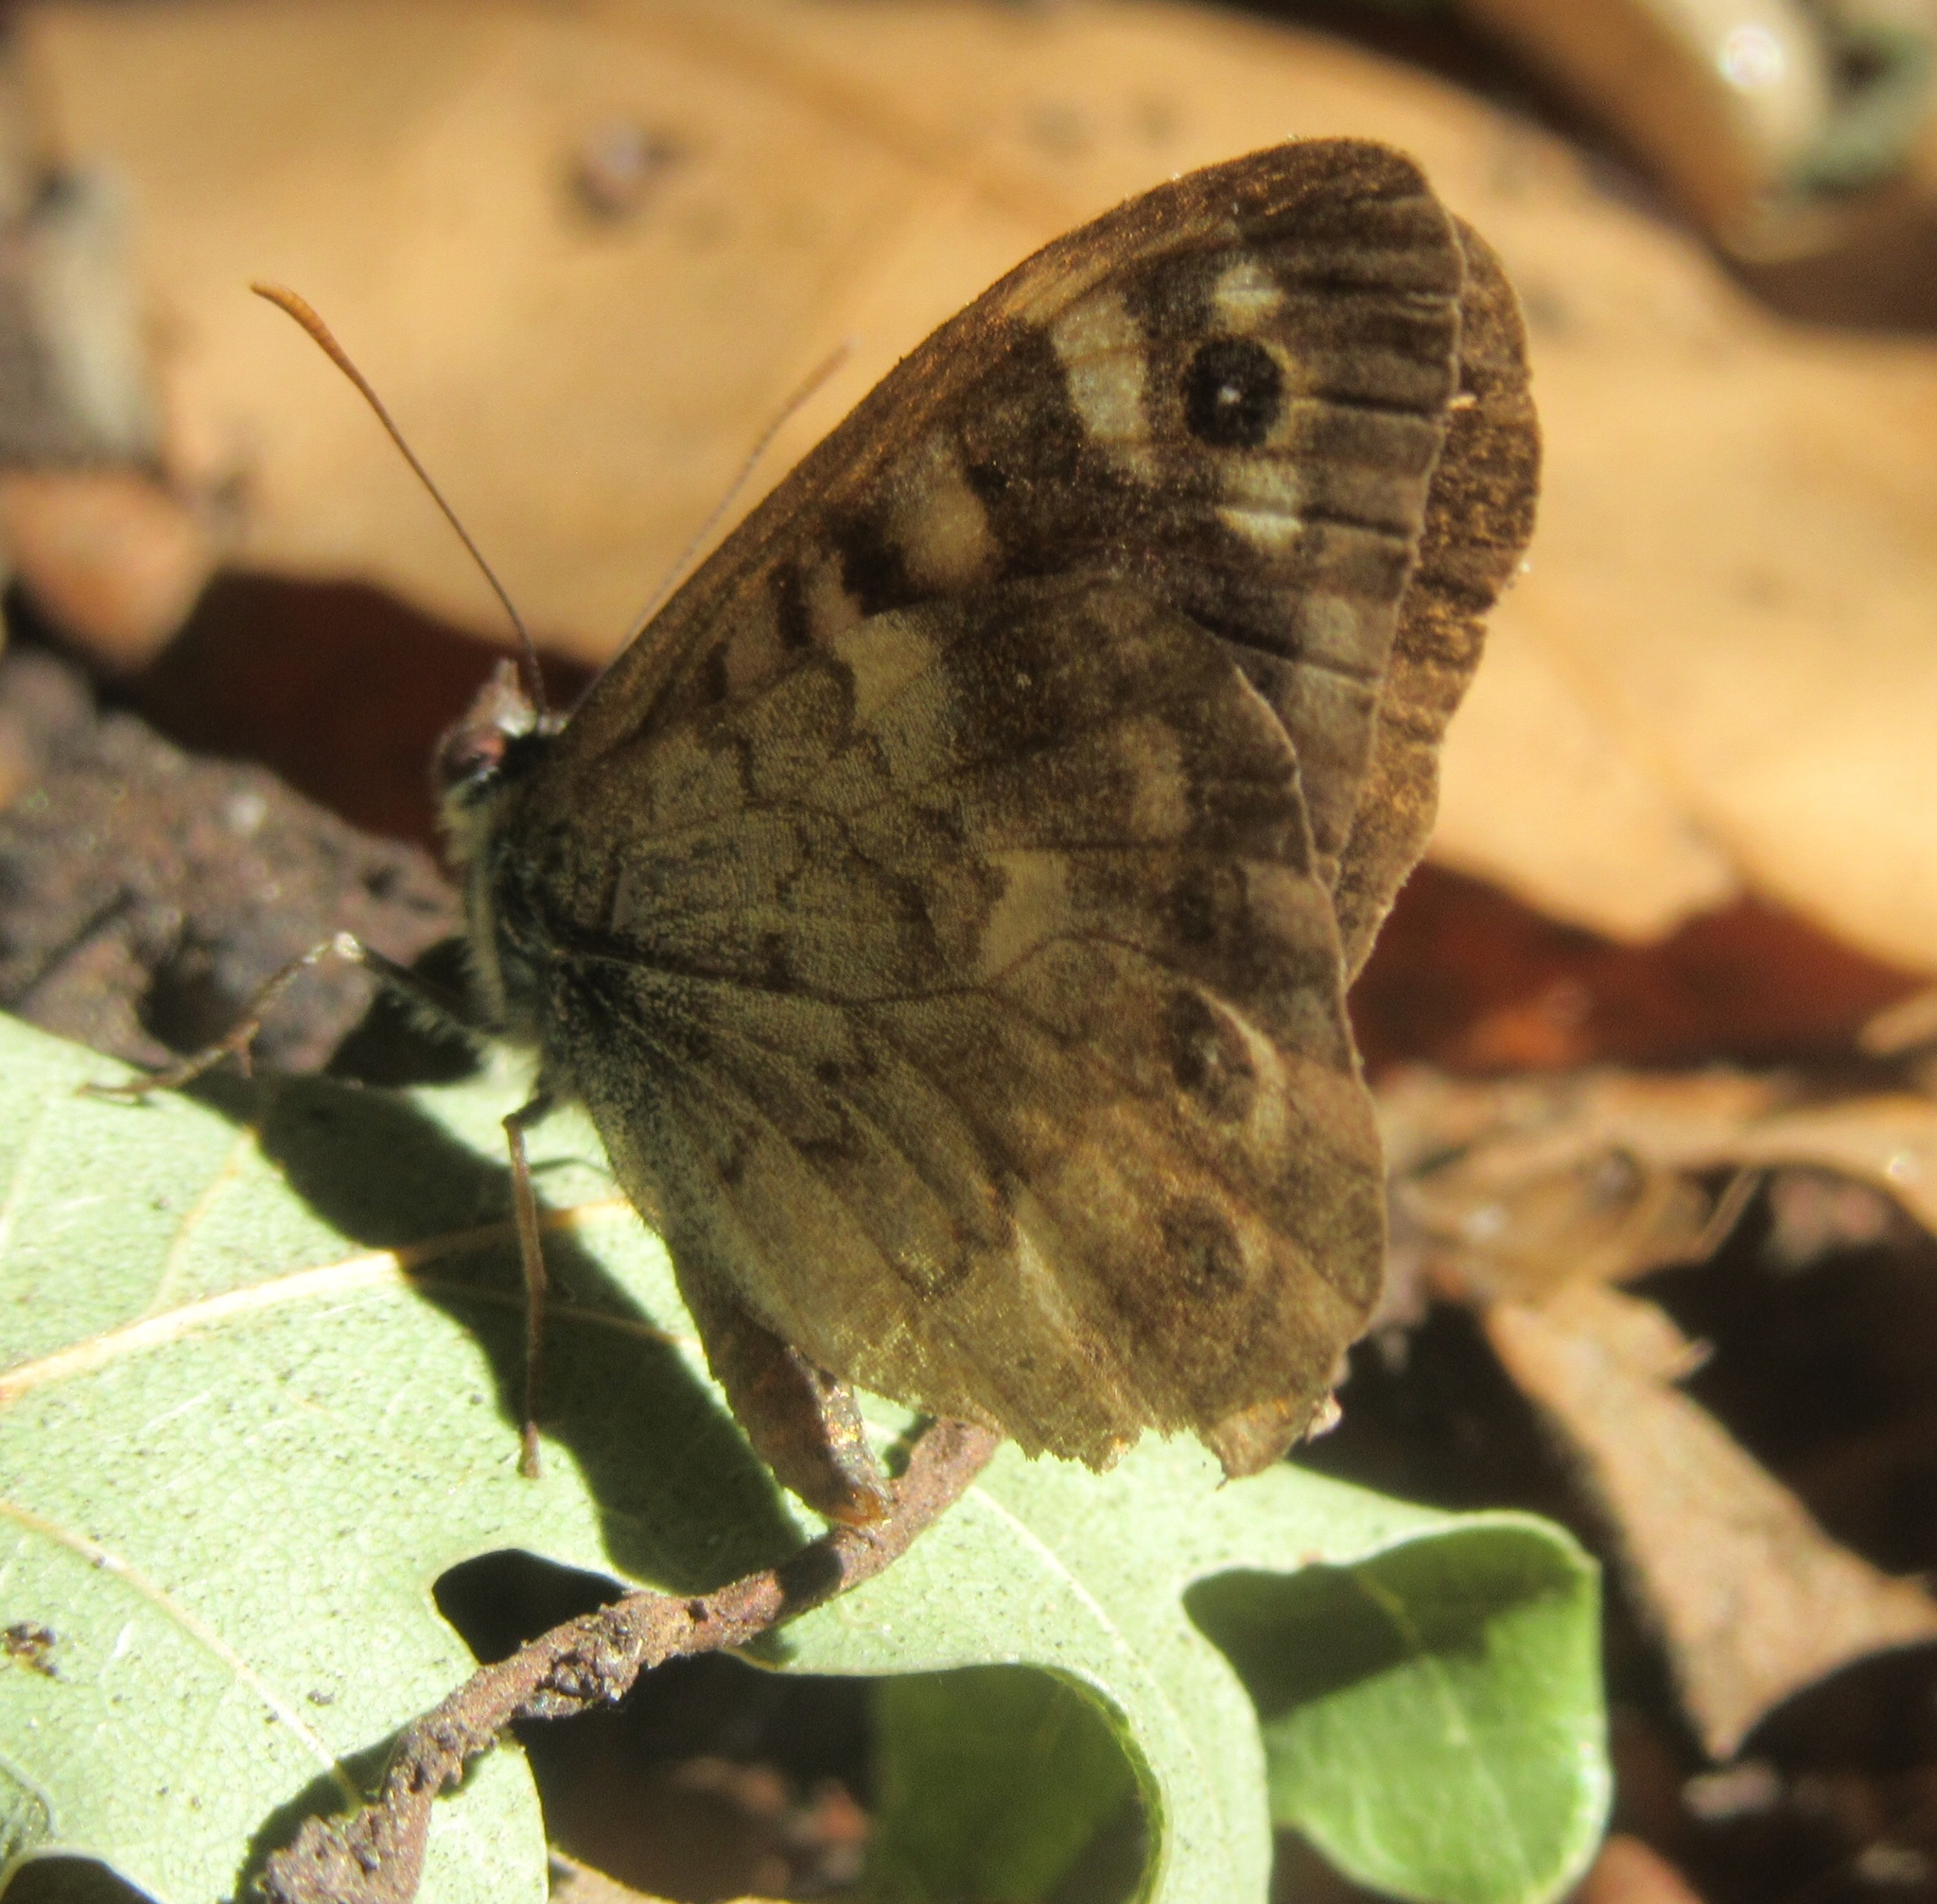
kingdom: Animalia
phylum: Arthropoda
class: Insecta
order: Lepidoptera
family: Nymphalidae
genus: Pararge
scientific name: Pararge aegeria
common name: Speckled wood
